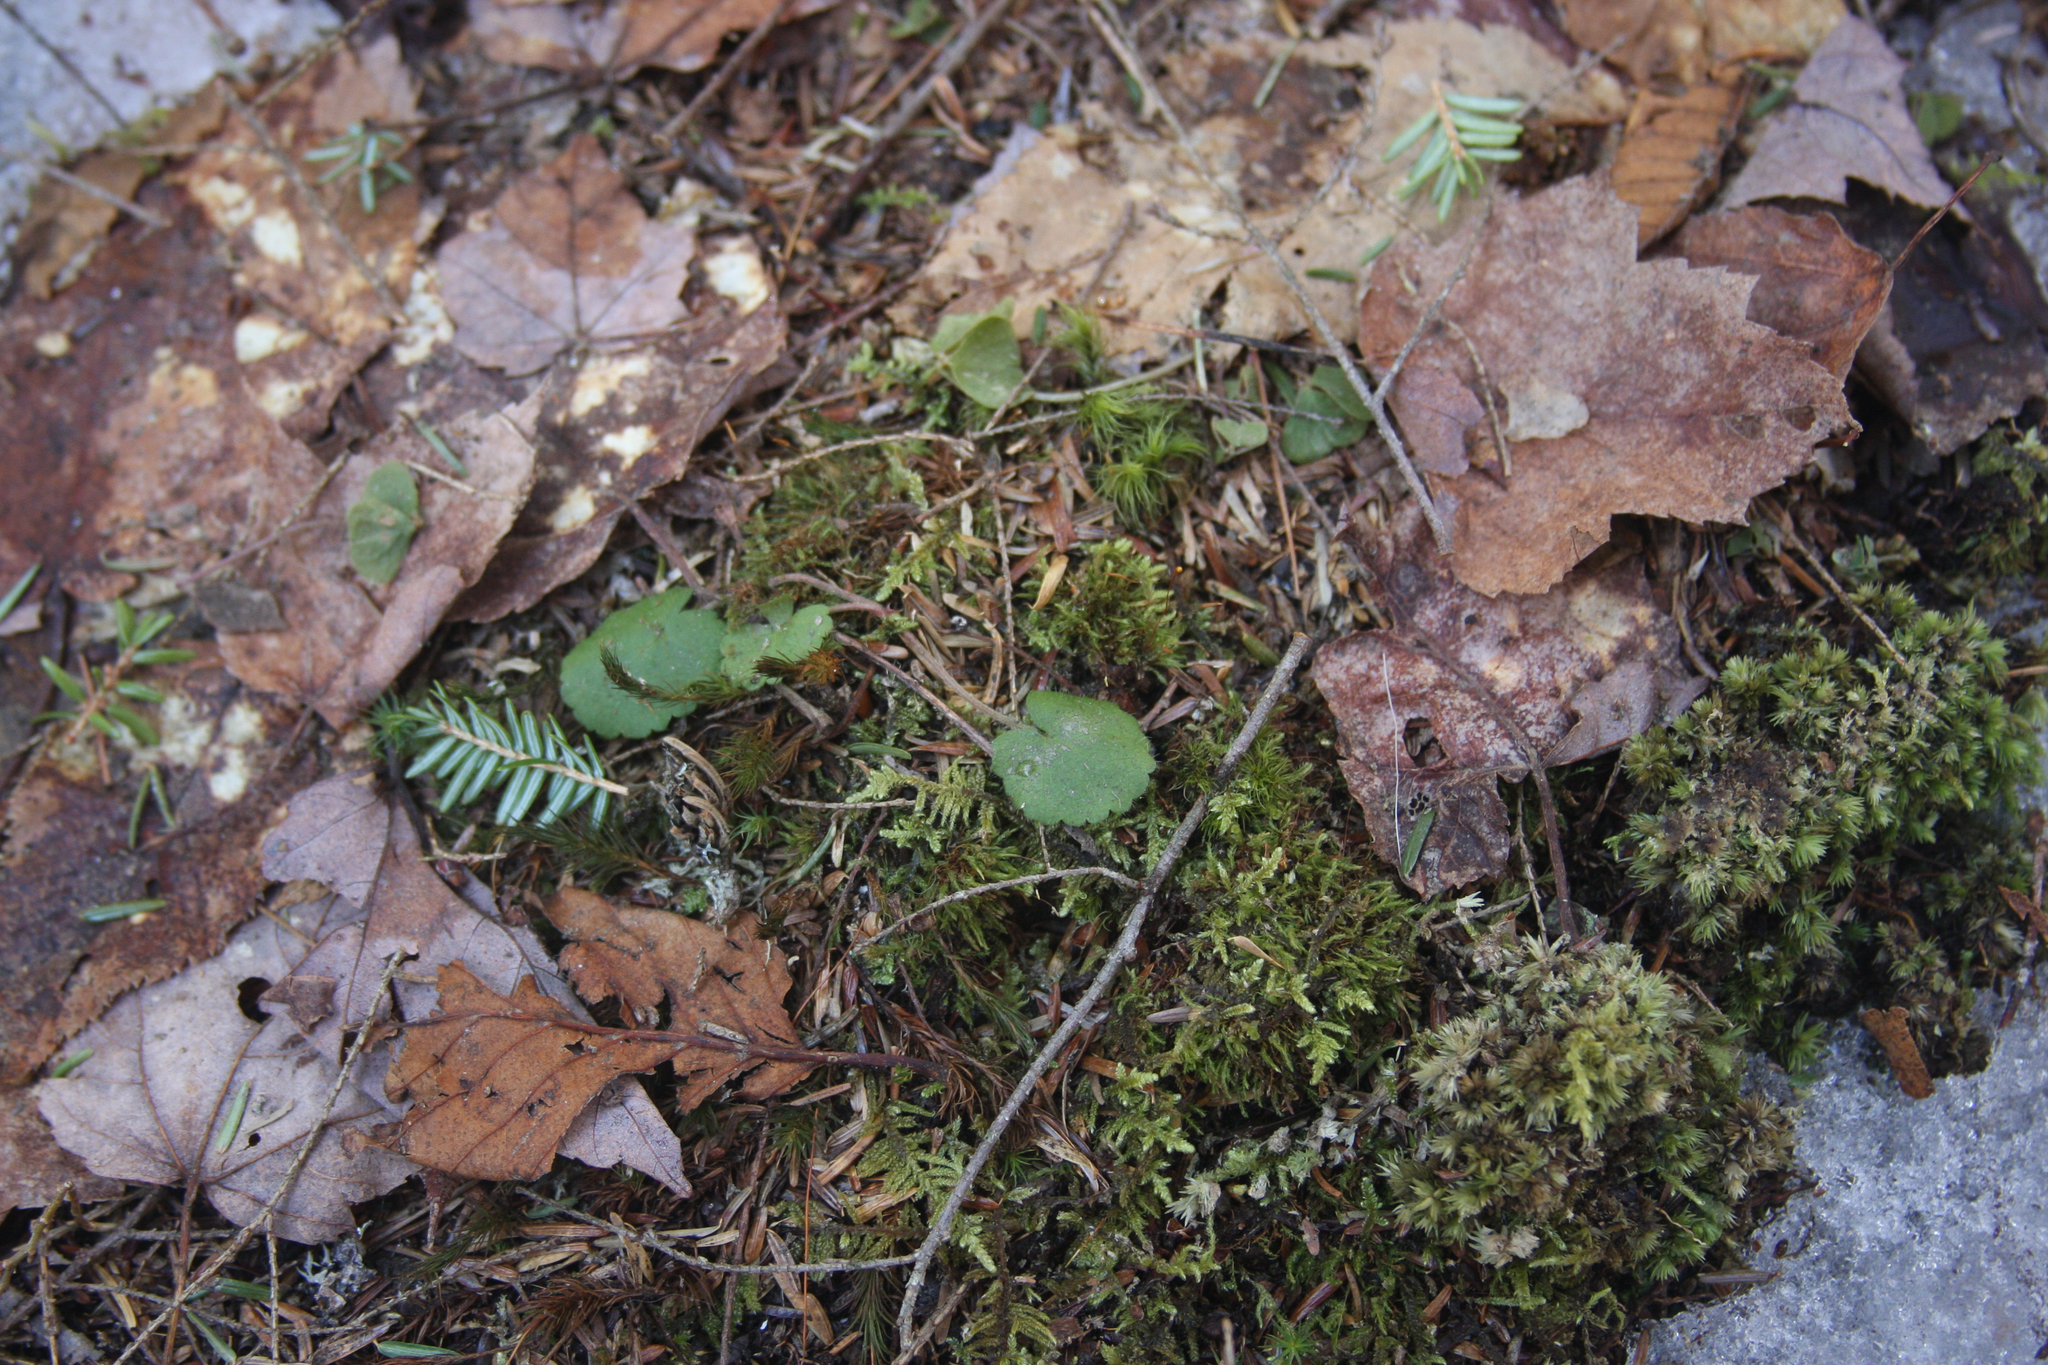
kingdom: Plantae
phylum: Tracheophyta
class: Magnoliopsida
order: Rosales
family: Rosaceae
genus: Dalibarda
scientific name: Dalibarda repens
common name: Dewdrop
